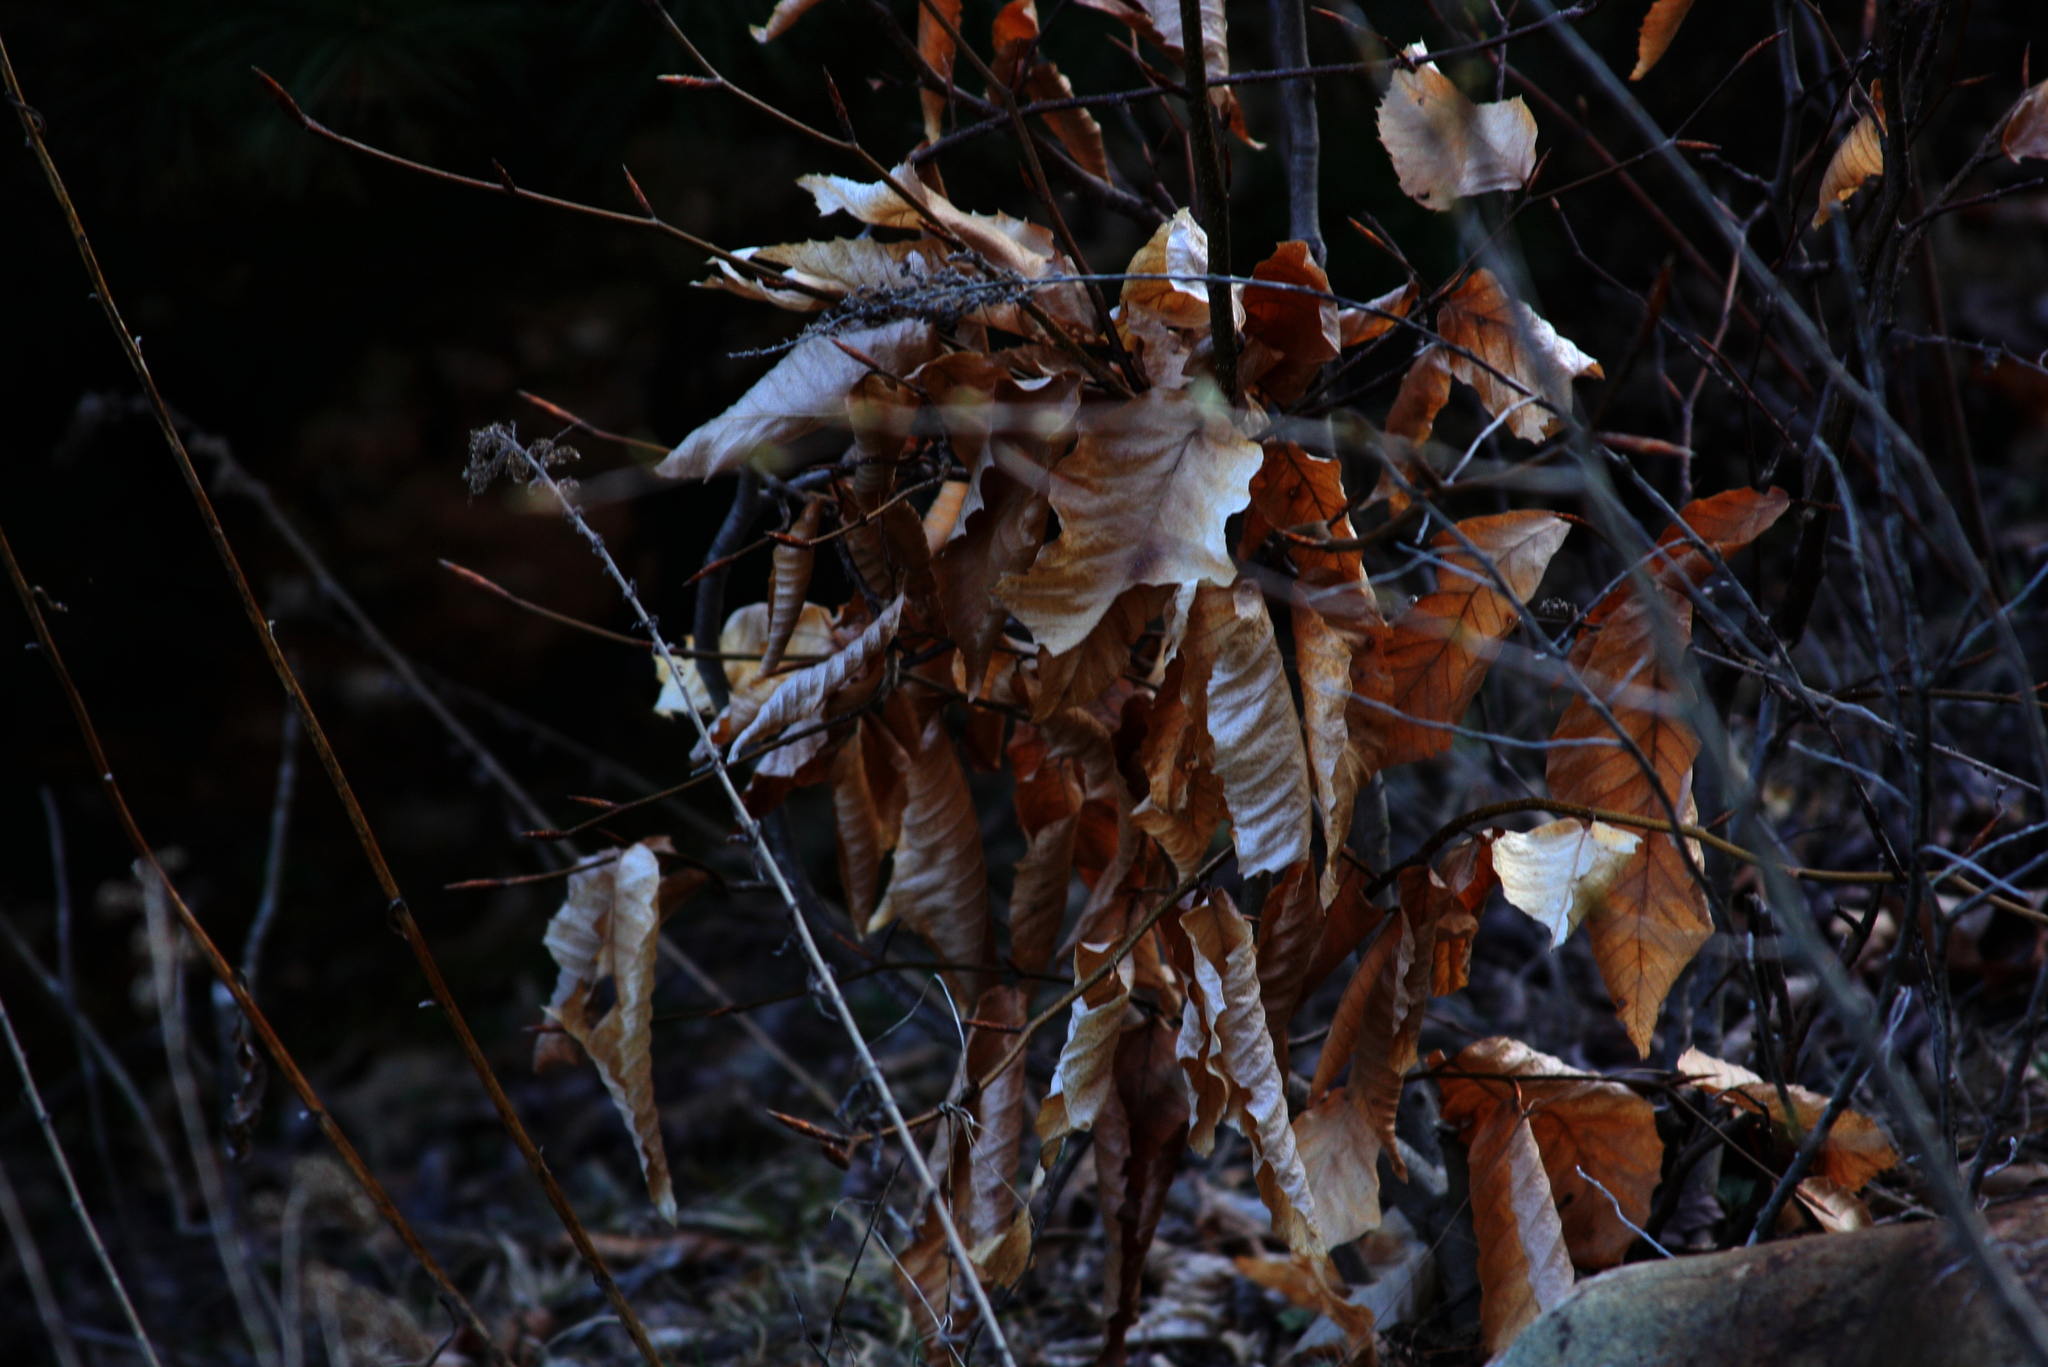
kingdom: Plantae
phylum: Tracheophyta
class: Magnoliopsida
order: Fagales
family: Fagaceae
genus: Fagus
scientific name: Fagus grandifolia
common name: American beech
